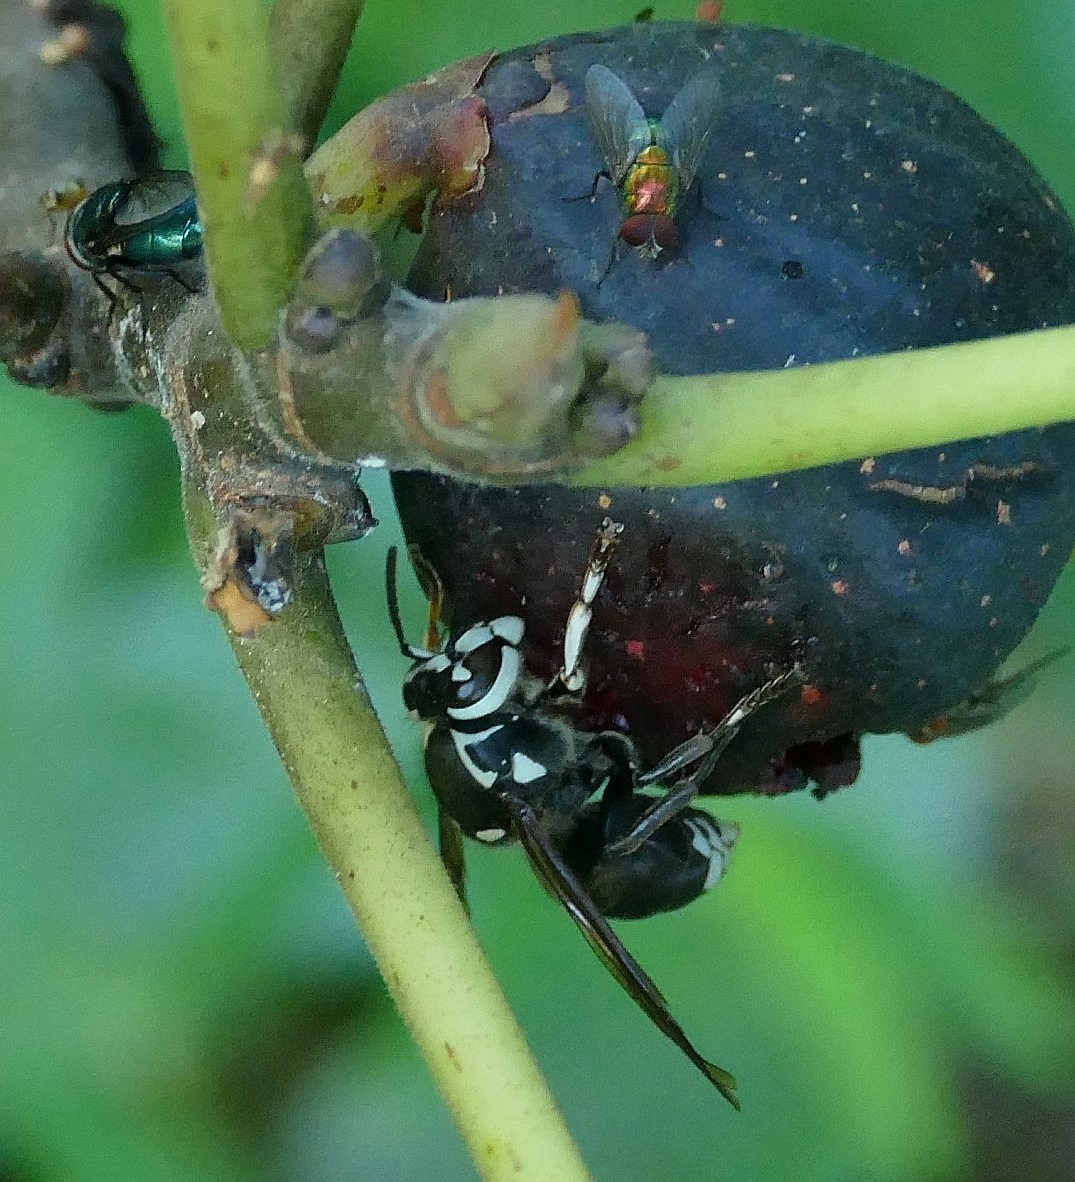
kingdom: Animalia
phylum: Arthropoda
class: Insecta
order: Hymenoptera
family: Vespidae
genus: Dolichovespula
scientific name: Dolichovespula maculata
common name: Bald-faced hornet
